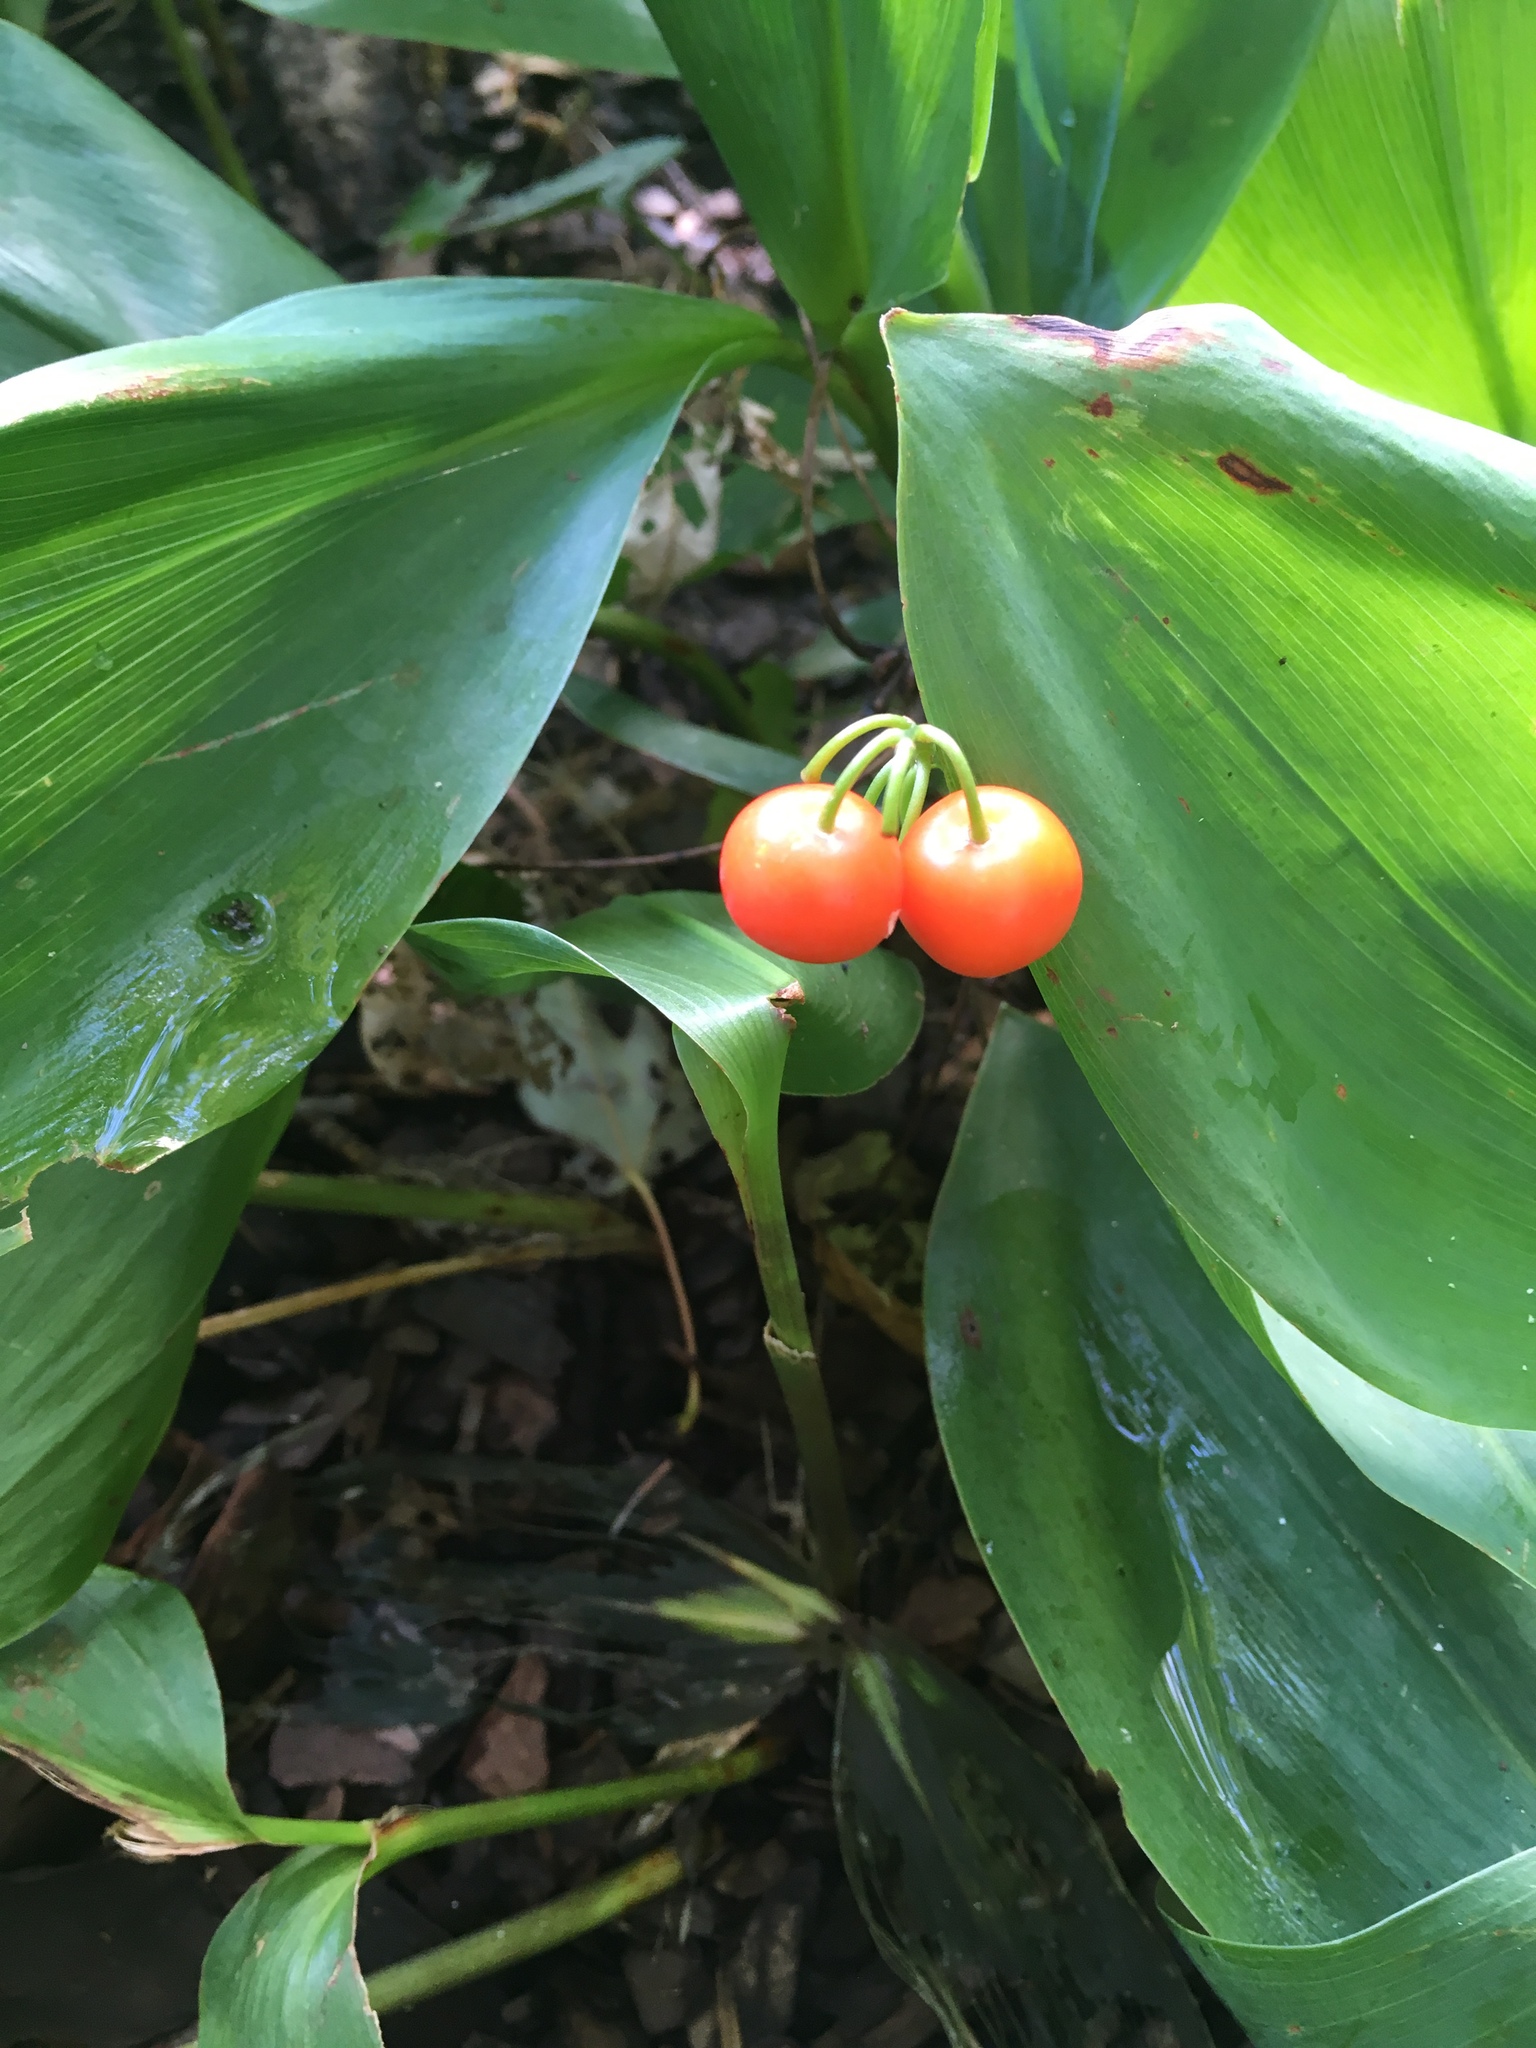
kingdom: Plantae
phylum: Tracheophyta
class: Liliopsida
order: Asparagales
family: Asparagaceae
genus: Convallaria
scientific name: Convallaria majalis
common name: Lily-of-the-valley
